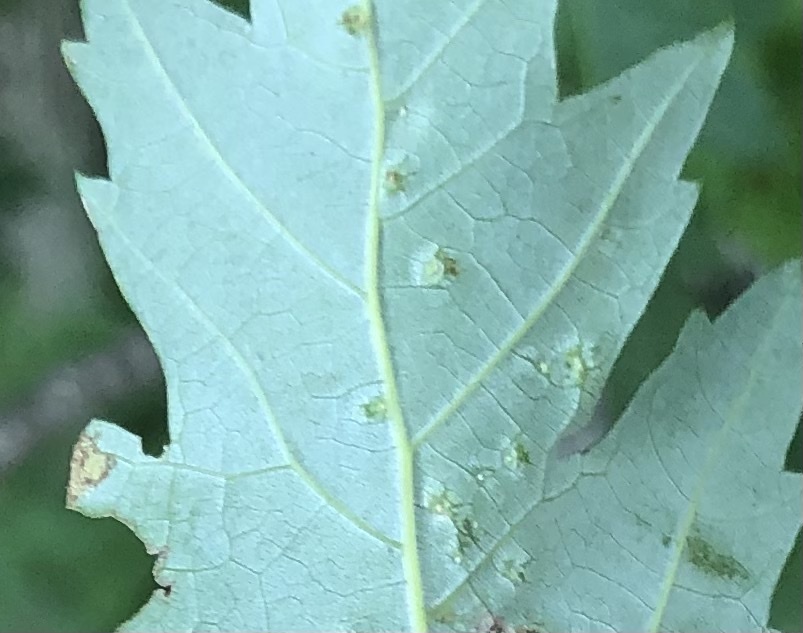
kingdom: Animalia
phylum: Arthropoda
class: Arachnida
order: Trombidiformes
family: Eriophyidae
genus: Vasates
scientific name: Vasates quadripedes
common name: Maple bladder gall mite
